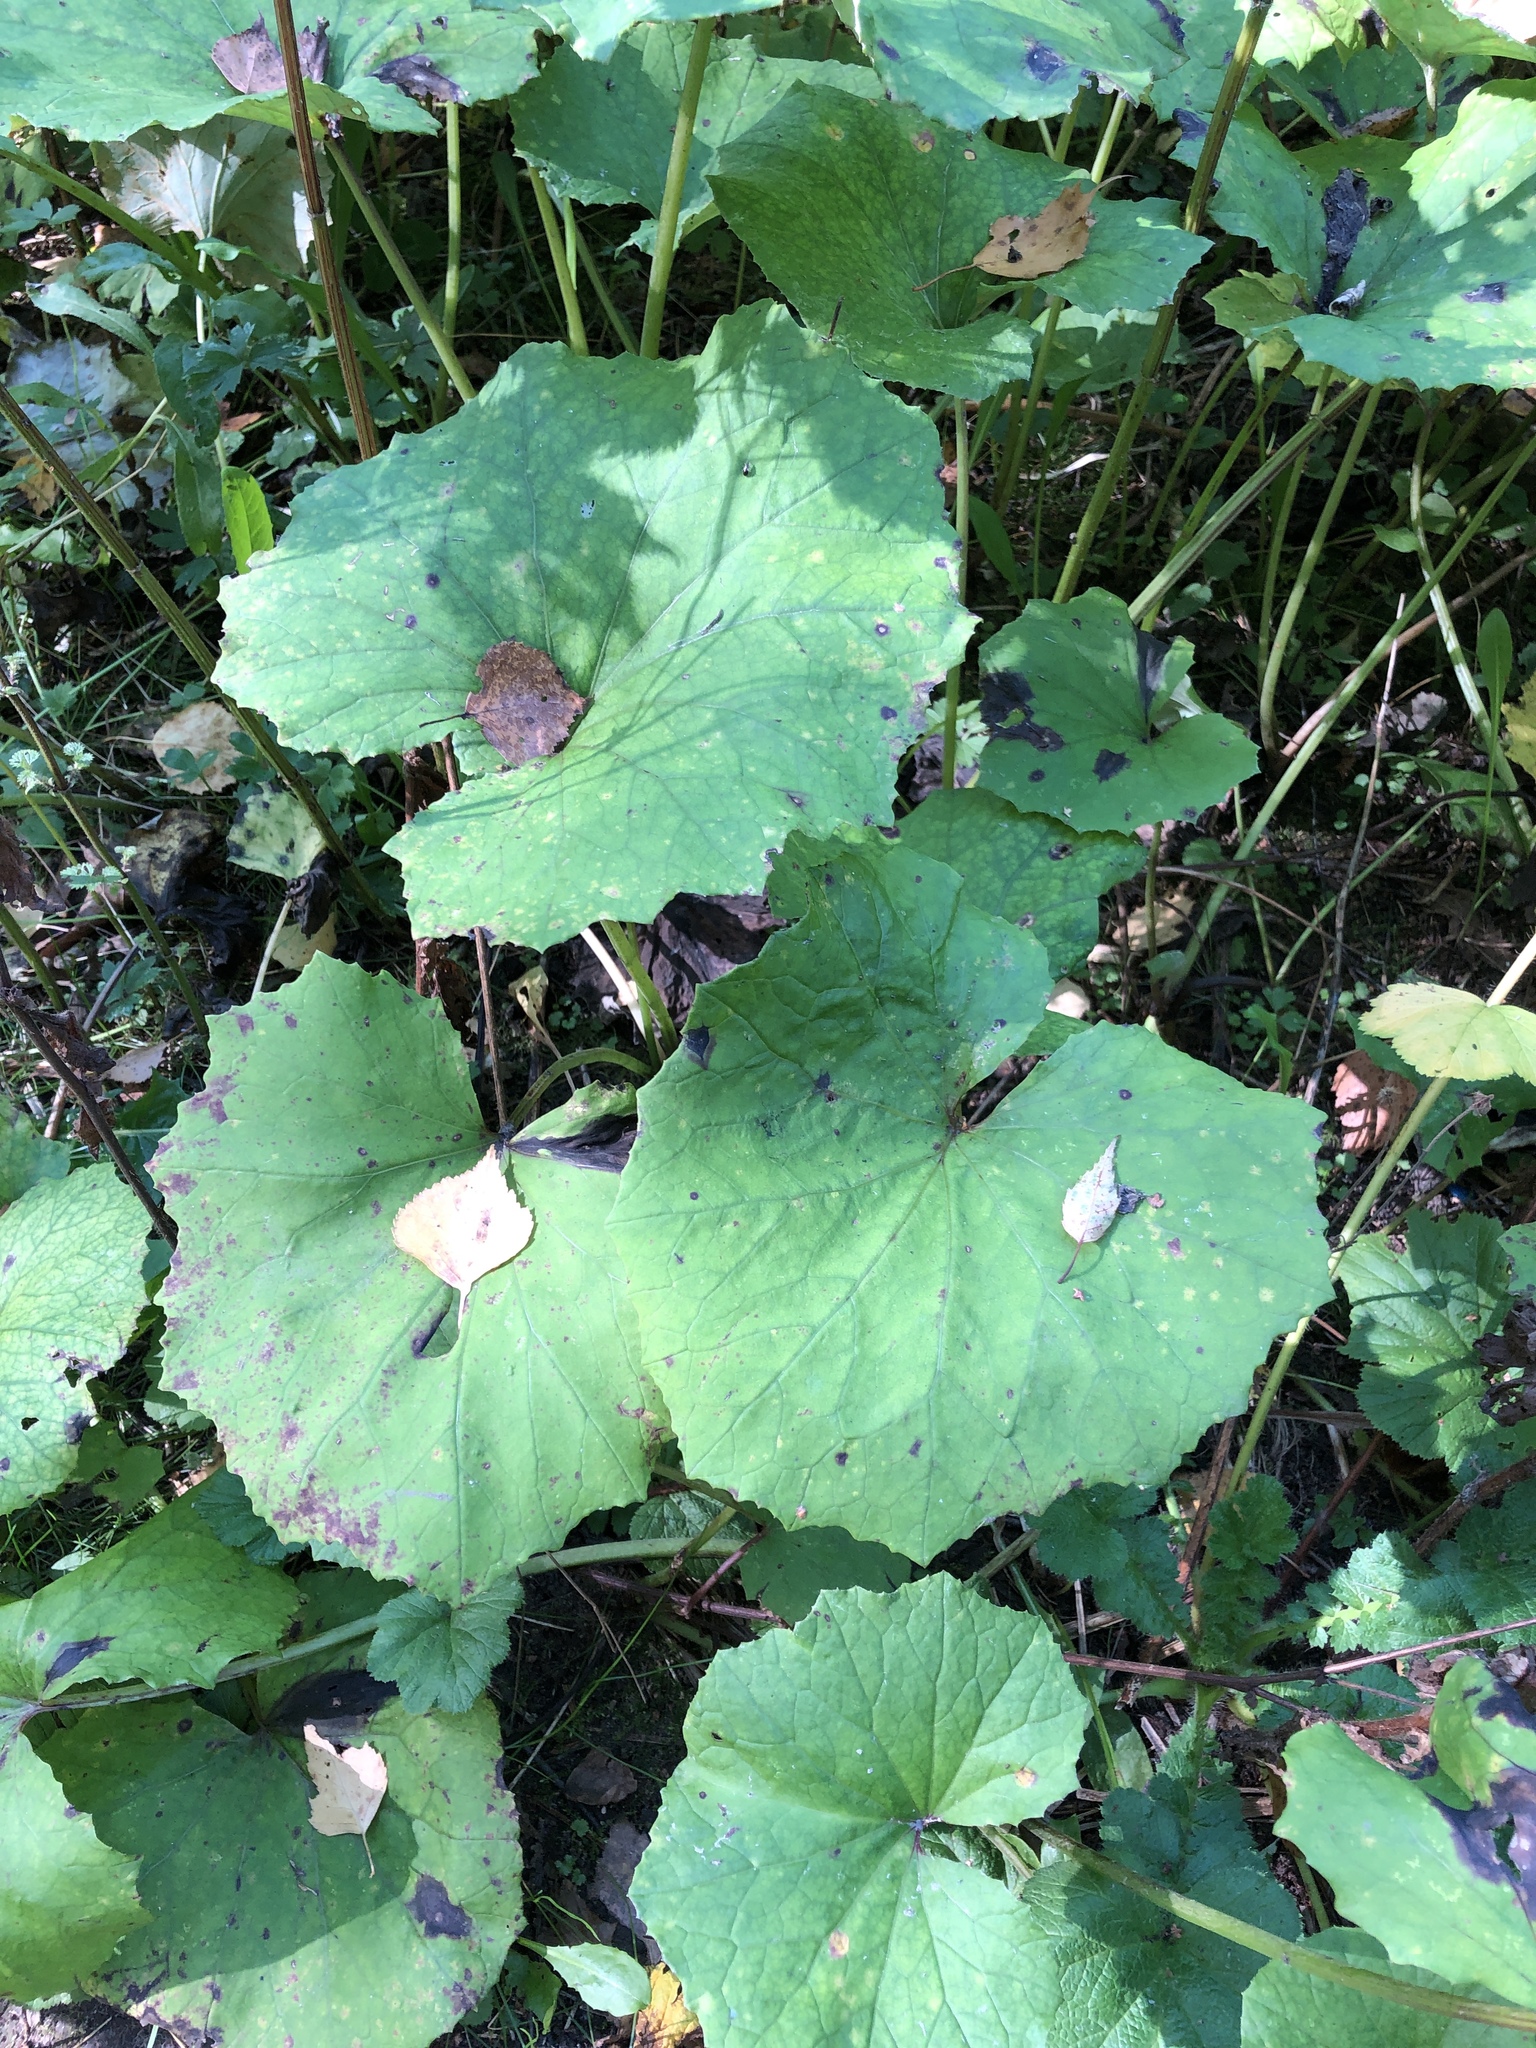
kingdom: Plantae
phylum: Tracheophyta
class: Magnoliopsida
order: Asterales
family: Asteraceae
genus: Tussilago
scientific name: Tussilago farfara
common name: Coltsfoot
